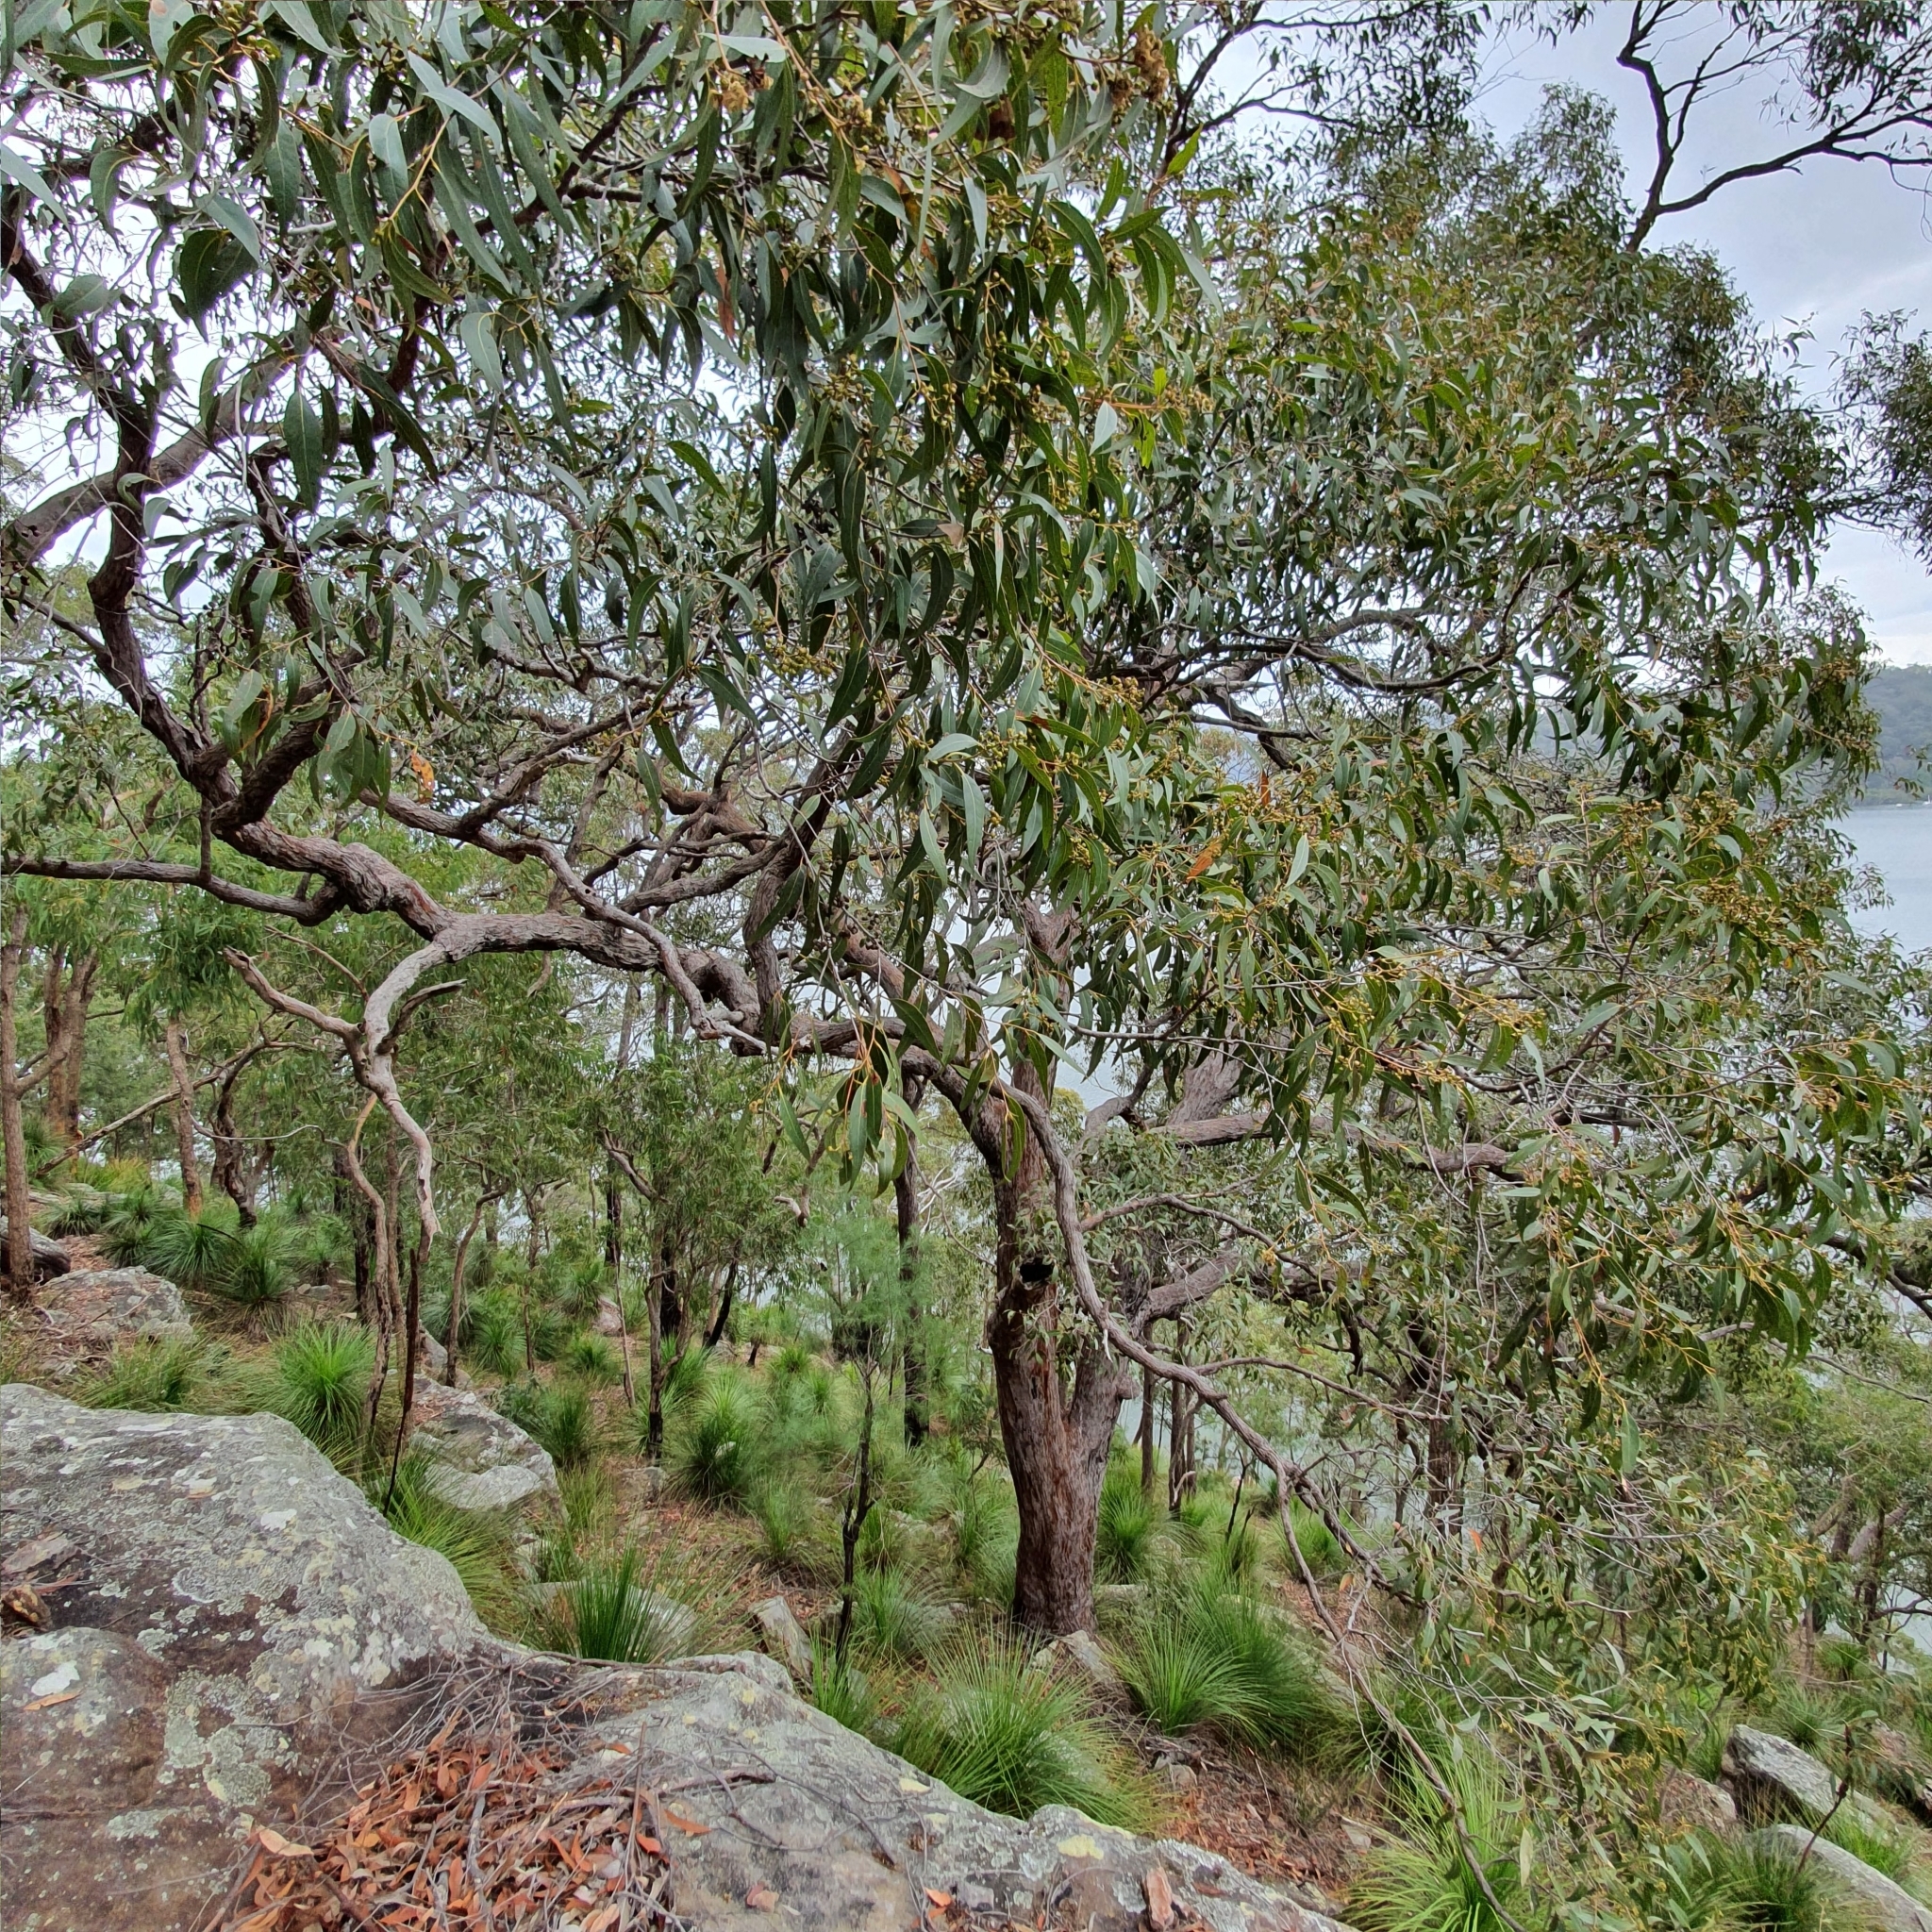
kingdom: Plantae
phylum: Tracheophyta
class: Magnoliopsida
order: Myrtales
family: Myrtaceae
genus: Eucalyptus
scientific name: Eucalyptus umbra
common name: White-mahogany
